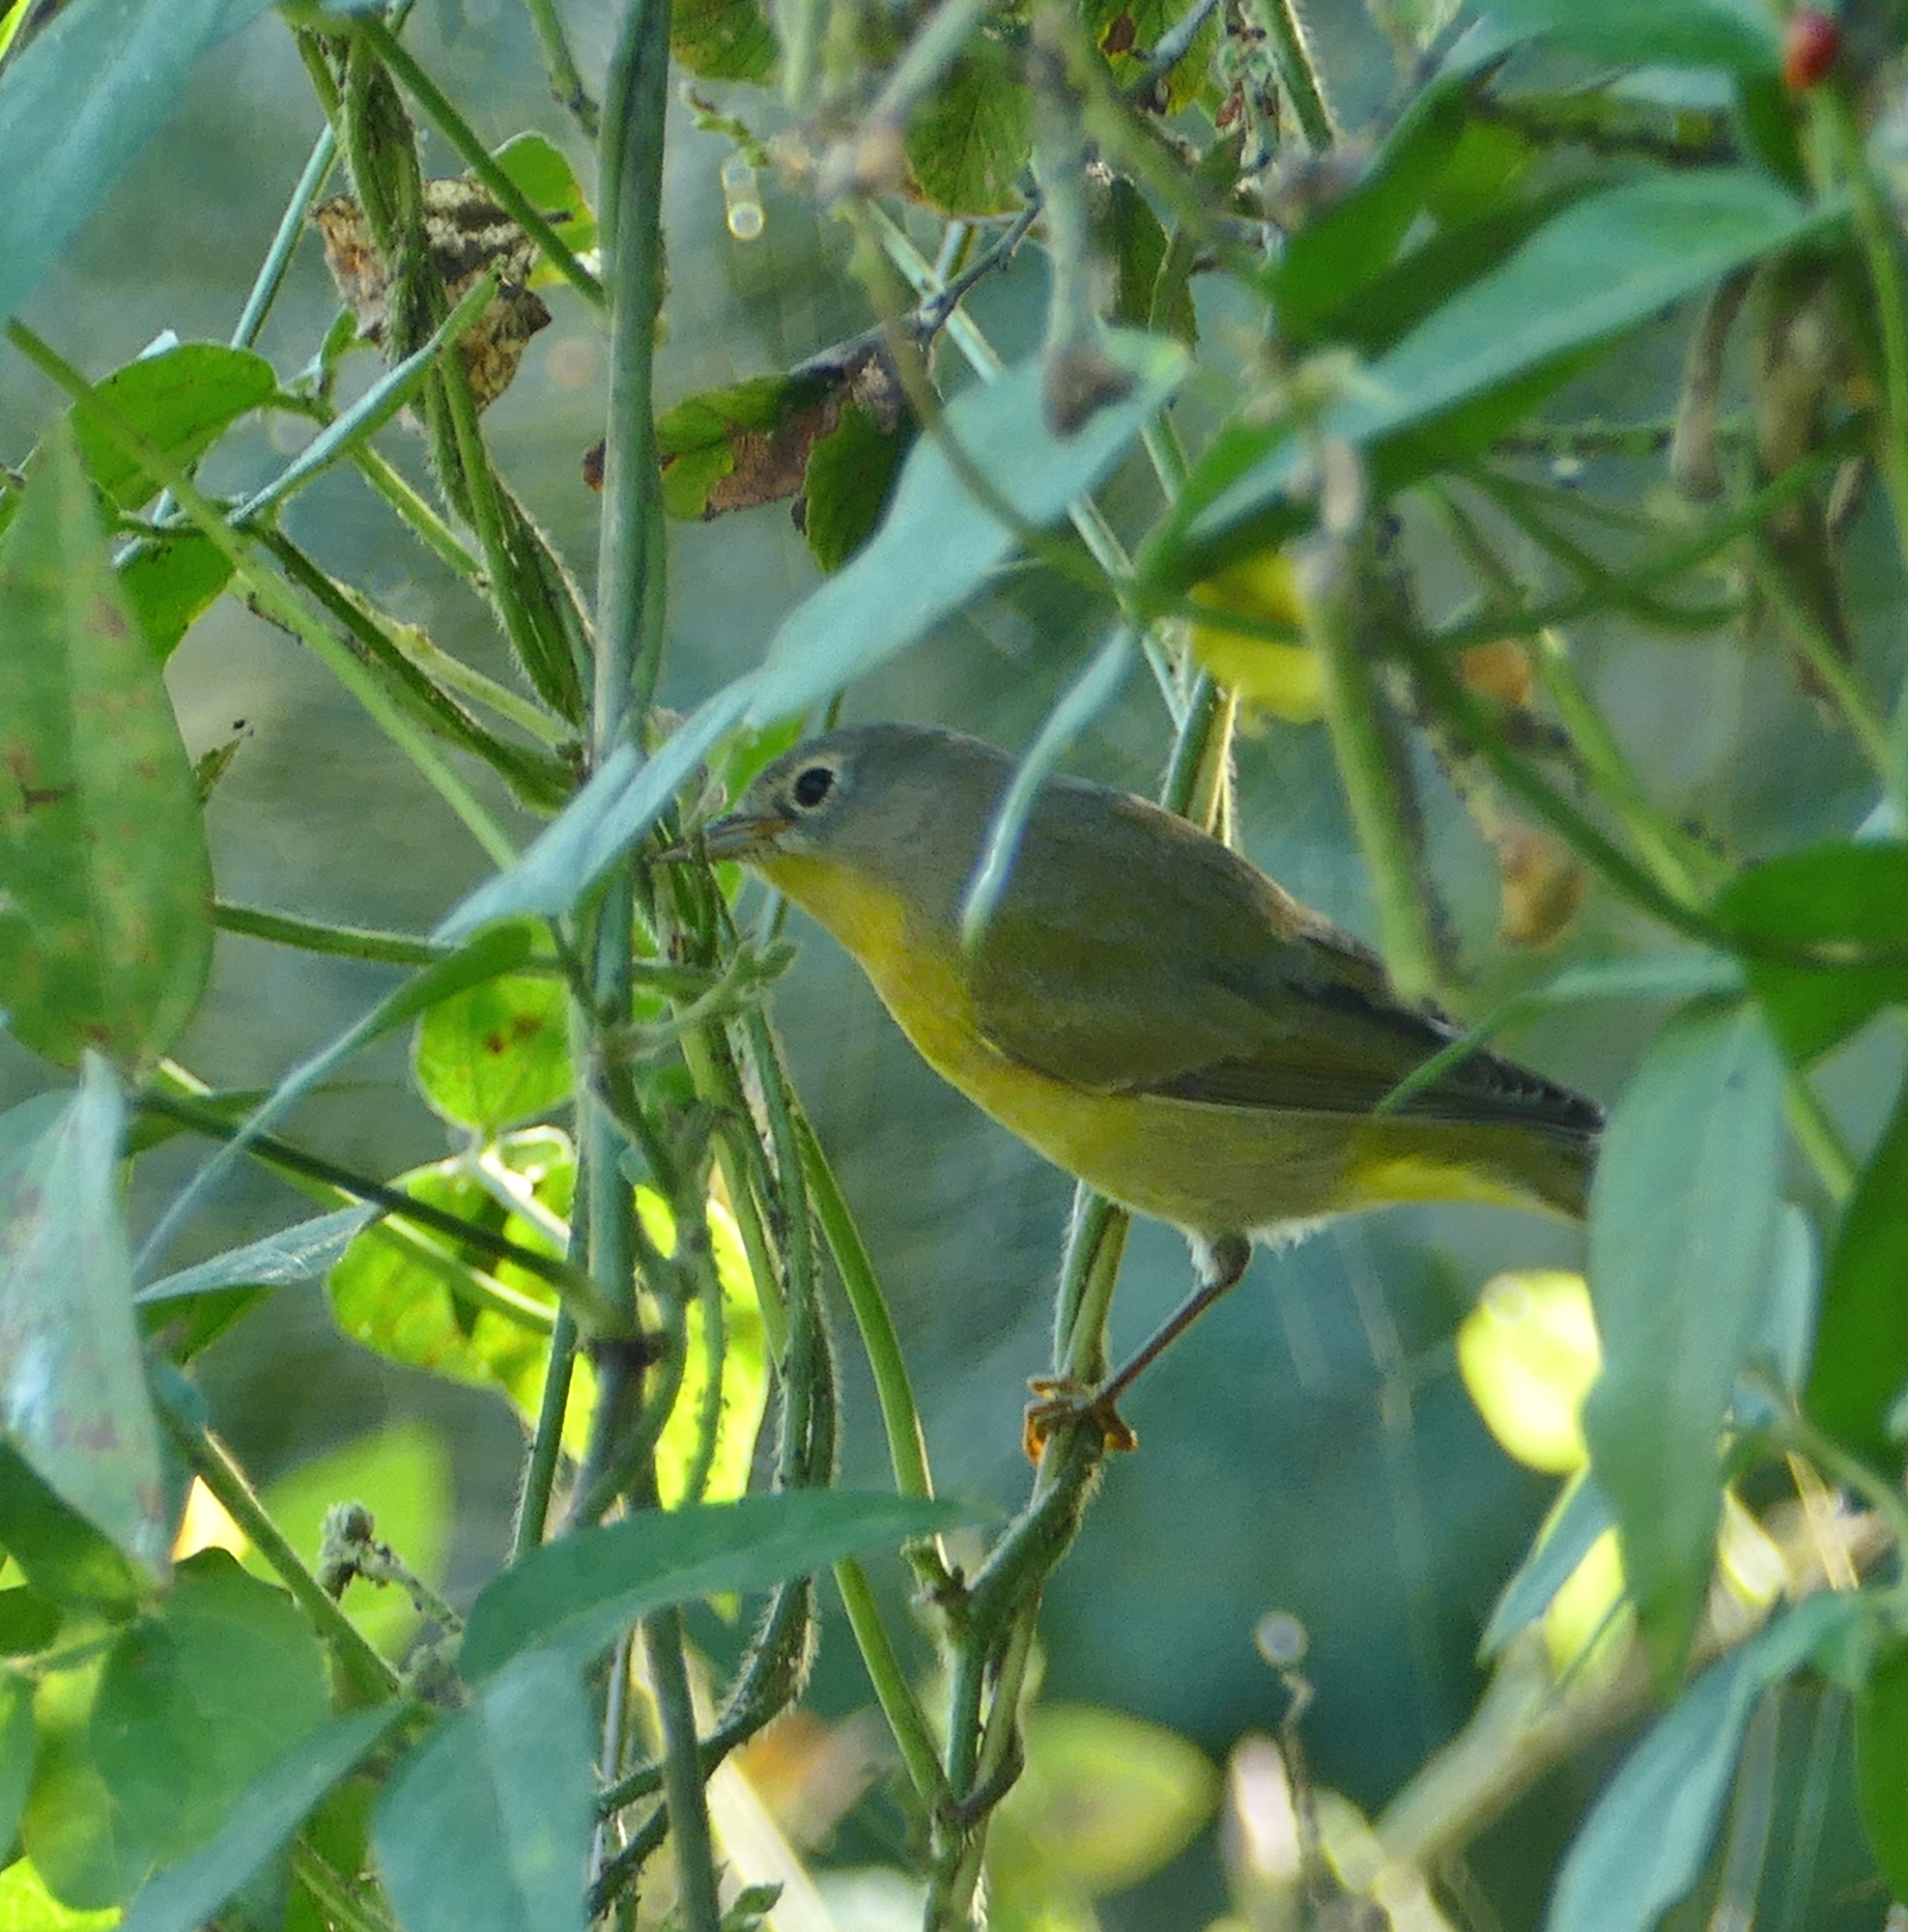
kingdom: Animalia
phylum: Chordata
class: Aves
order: Passeriformes
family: Parulidae
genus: Leiothlypis
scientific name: Leiothlypis ruficapilla
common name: Nashville warbler
